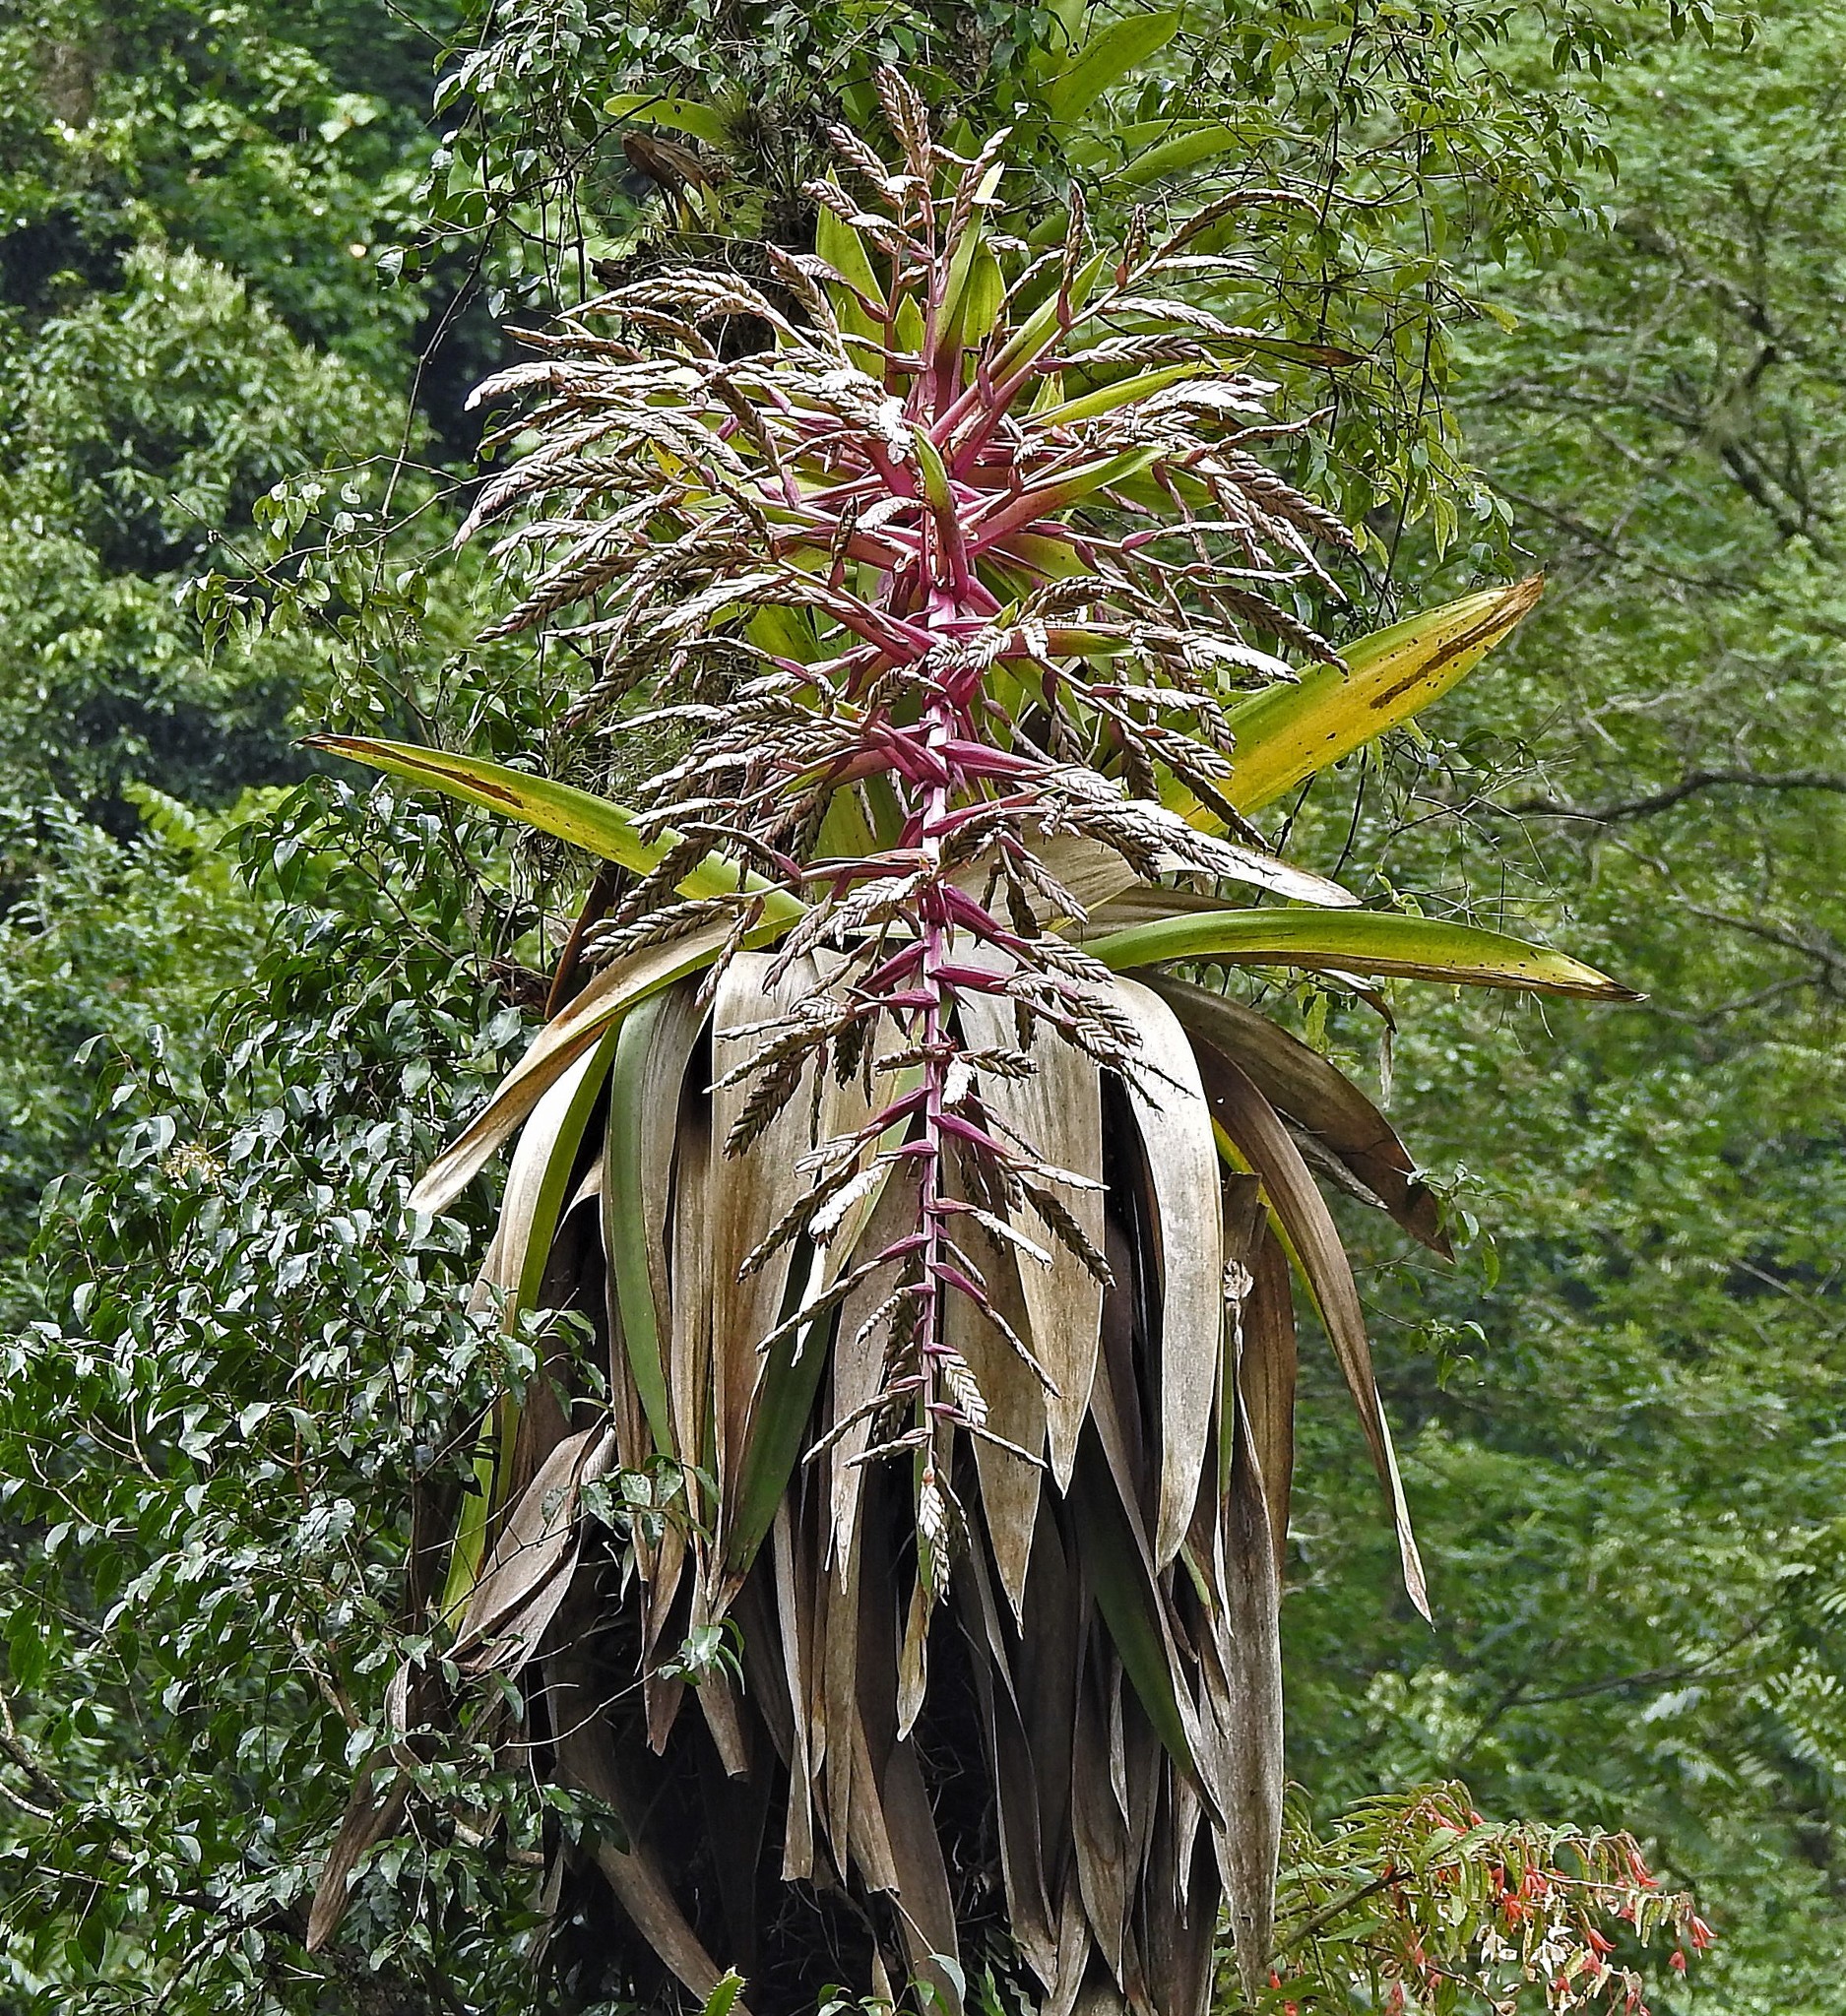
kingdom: Plantae
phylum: Tracheophyta
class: Liliopsida
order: Poales
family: Bromeliaceae
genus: Tillandsia
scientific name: Tillandsia australis
